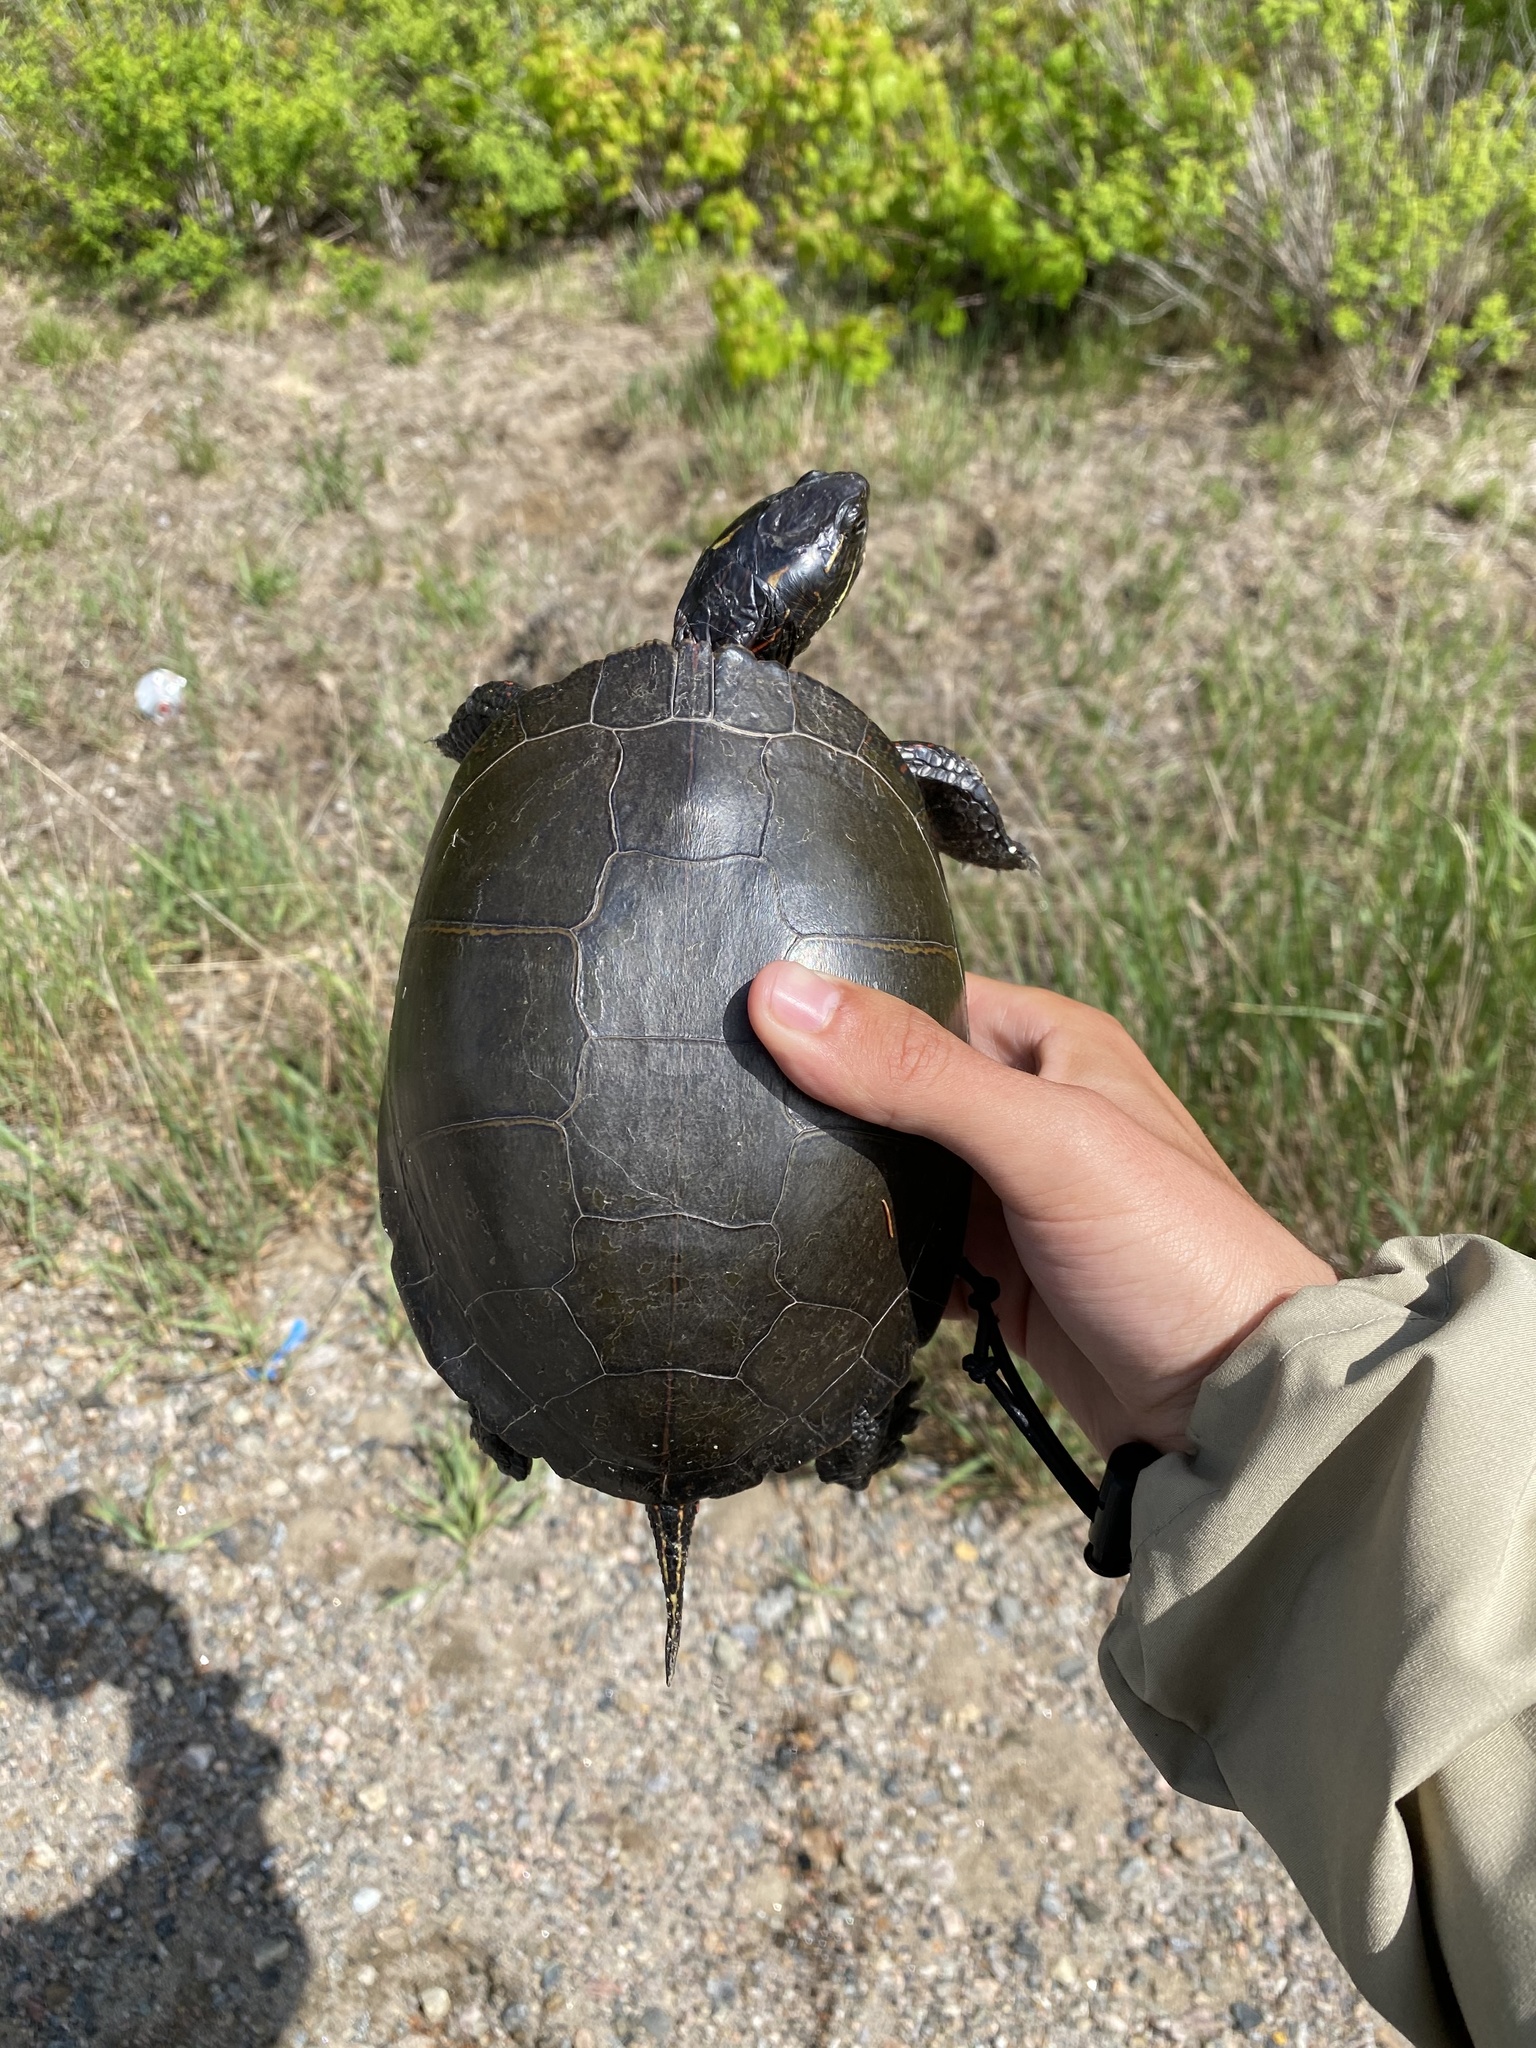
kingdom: Animalia
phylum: Chordata
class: Testudines
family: Emydidae
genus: Chrysemys
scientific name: Chrysemys picta
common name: Painted turtle
